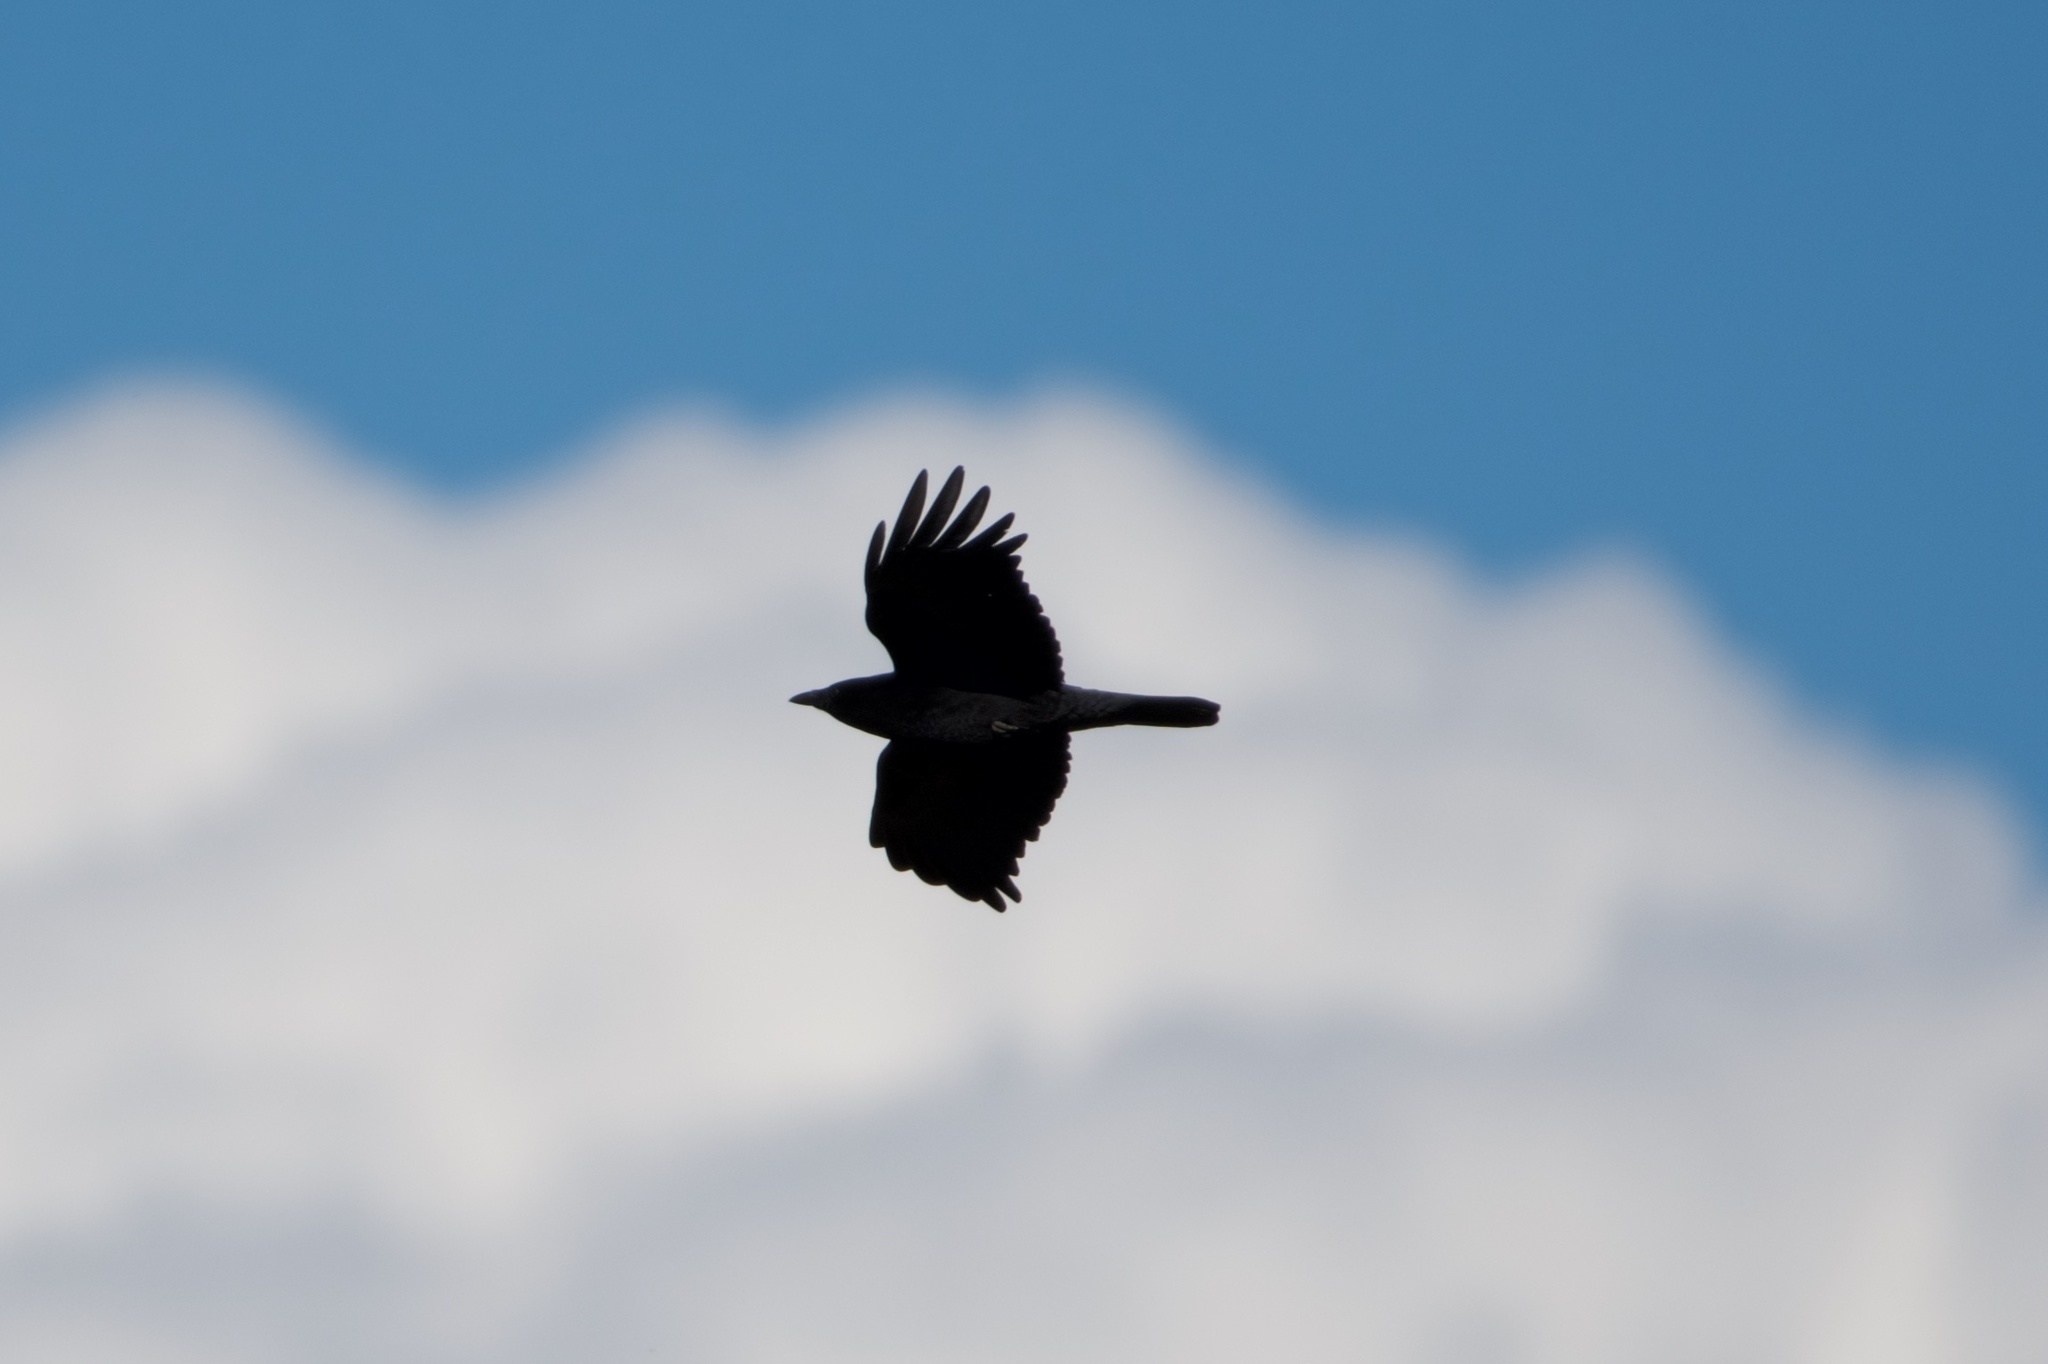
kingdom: Animalia
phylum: Chordata
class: Aves
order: Passeriformes
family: Corvidae
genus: Corvus
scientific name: Corvus brachyrhynchos
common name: American crow
